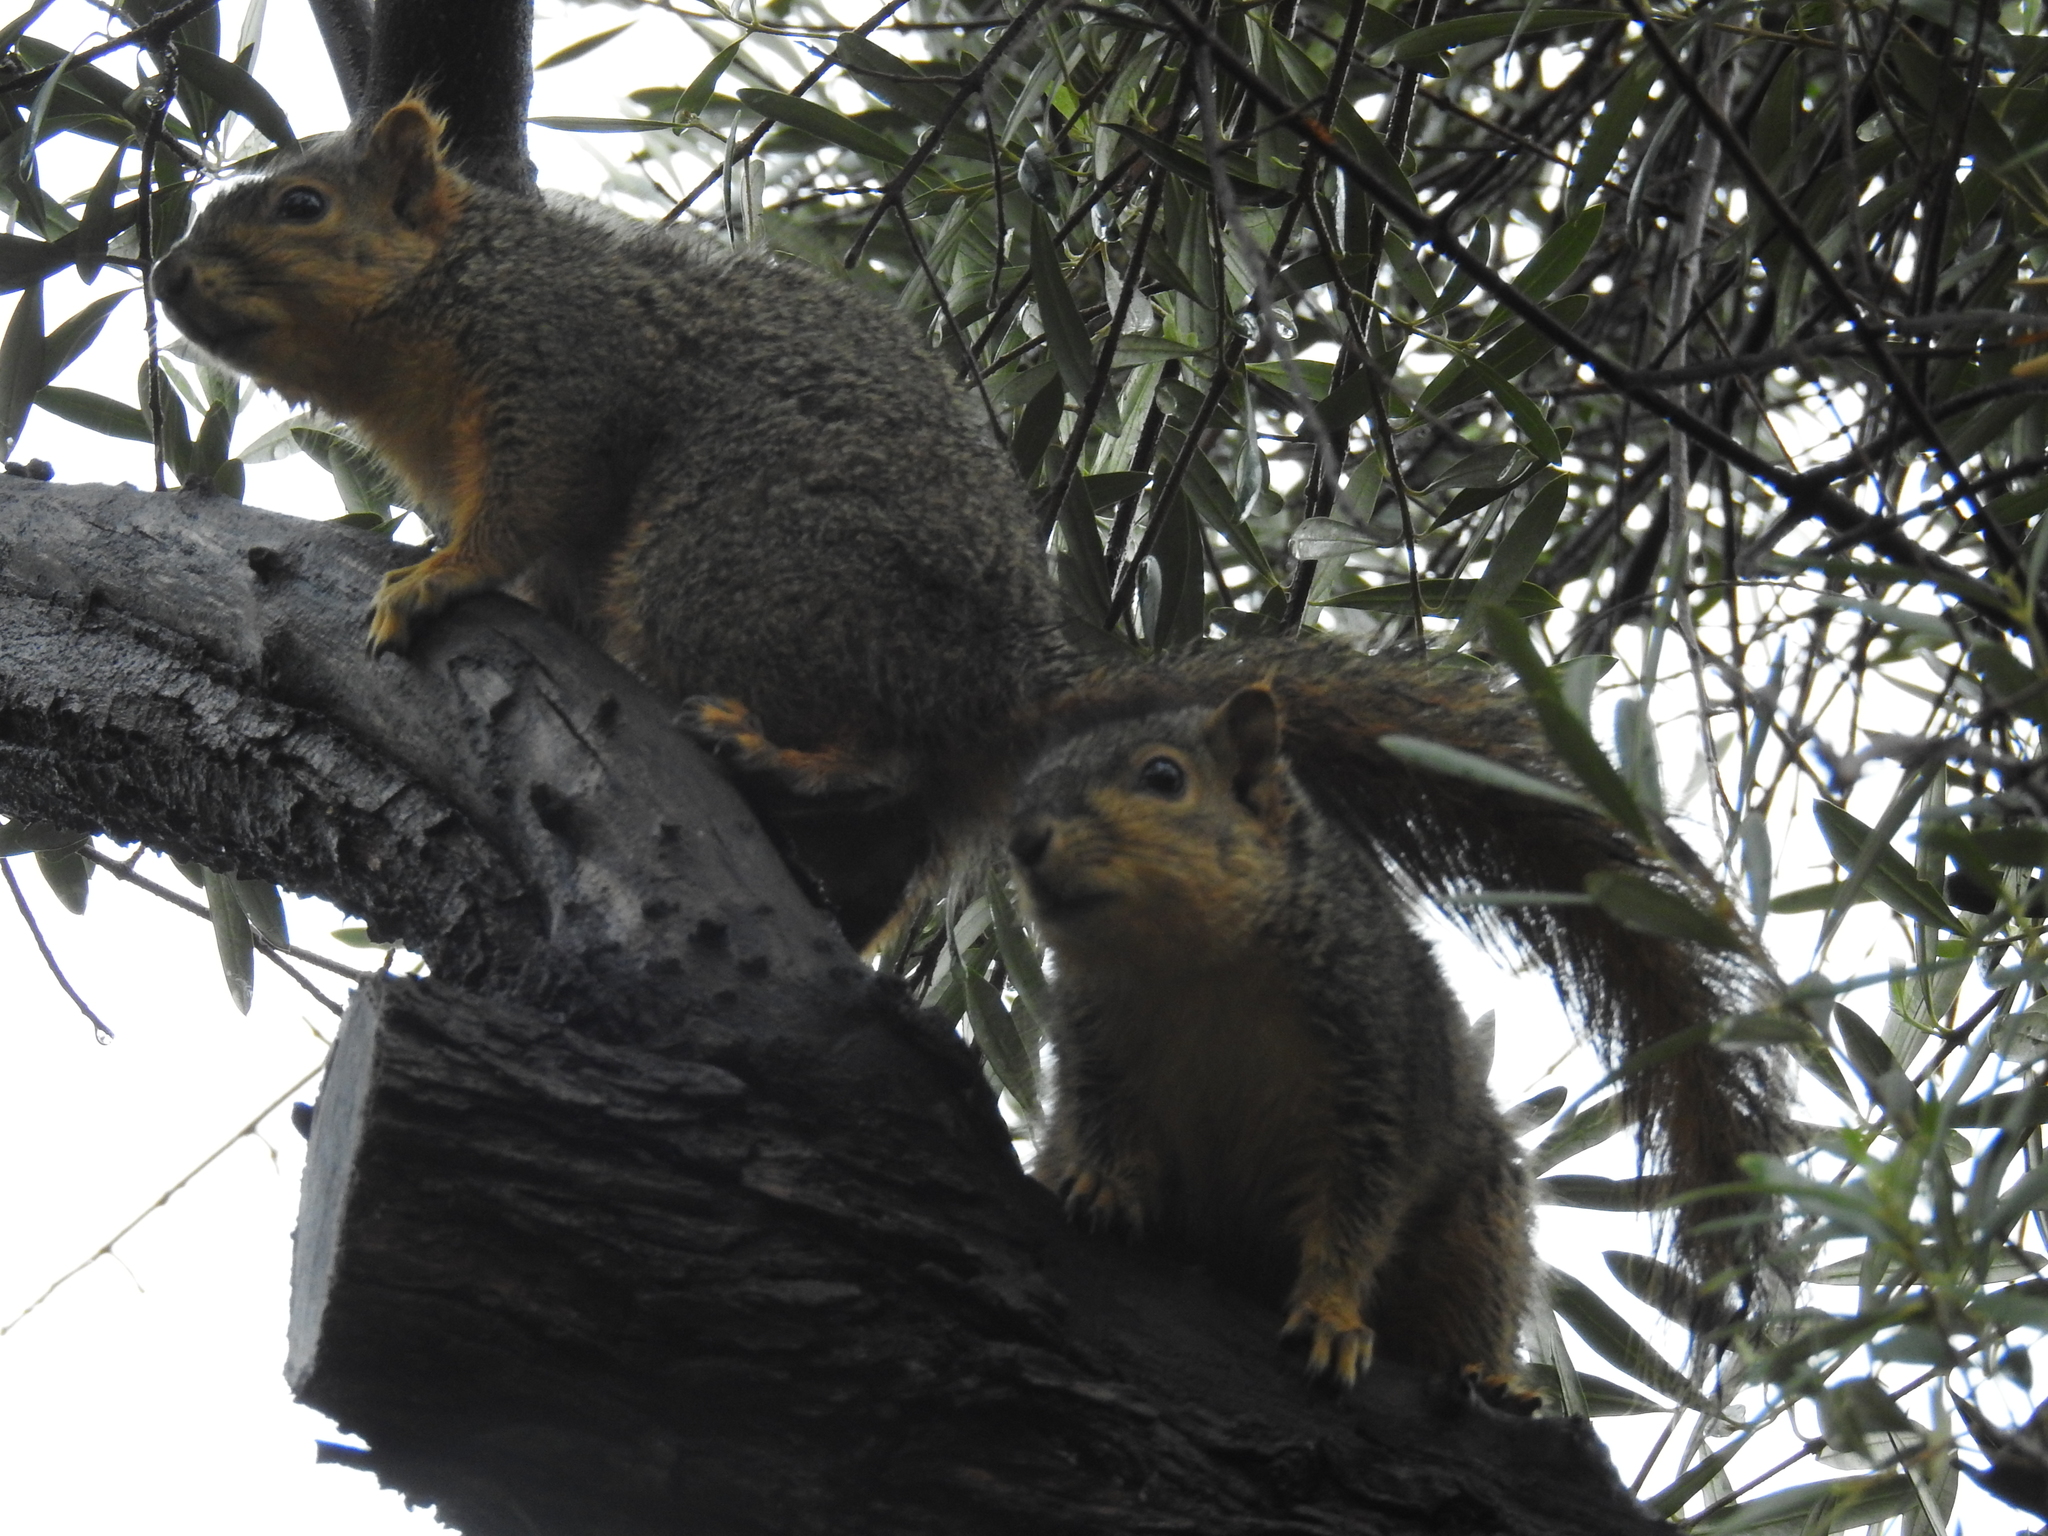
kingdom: Animalia
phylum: Chordata
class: Mammalia
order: Rodentia
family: Sciuridae
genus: Sciurus
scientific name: Sciurus niger
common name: Fox squirrel
